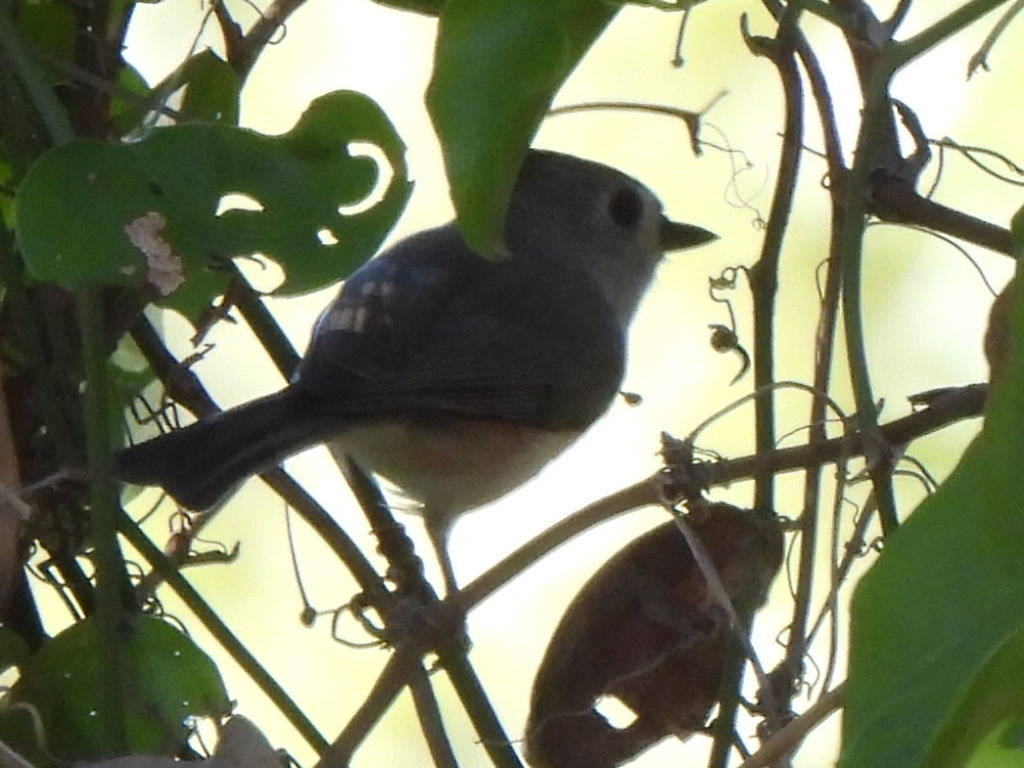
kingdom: Animalia
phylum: Chordata
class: Aves
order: Passeriformes
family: Paridae
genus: Baeolophus
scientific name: Baeolophus bicolor
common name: Tufted titmouse
